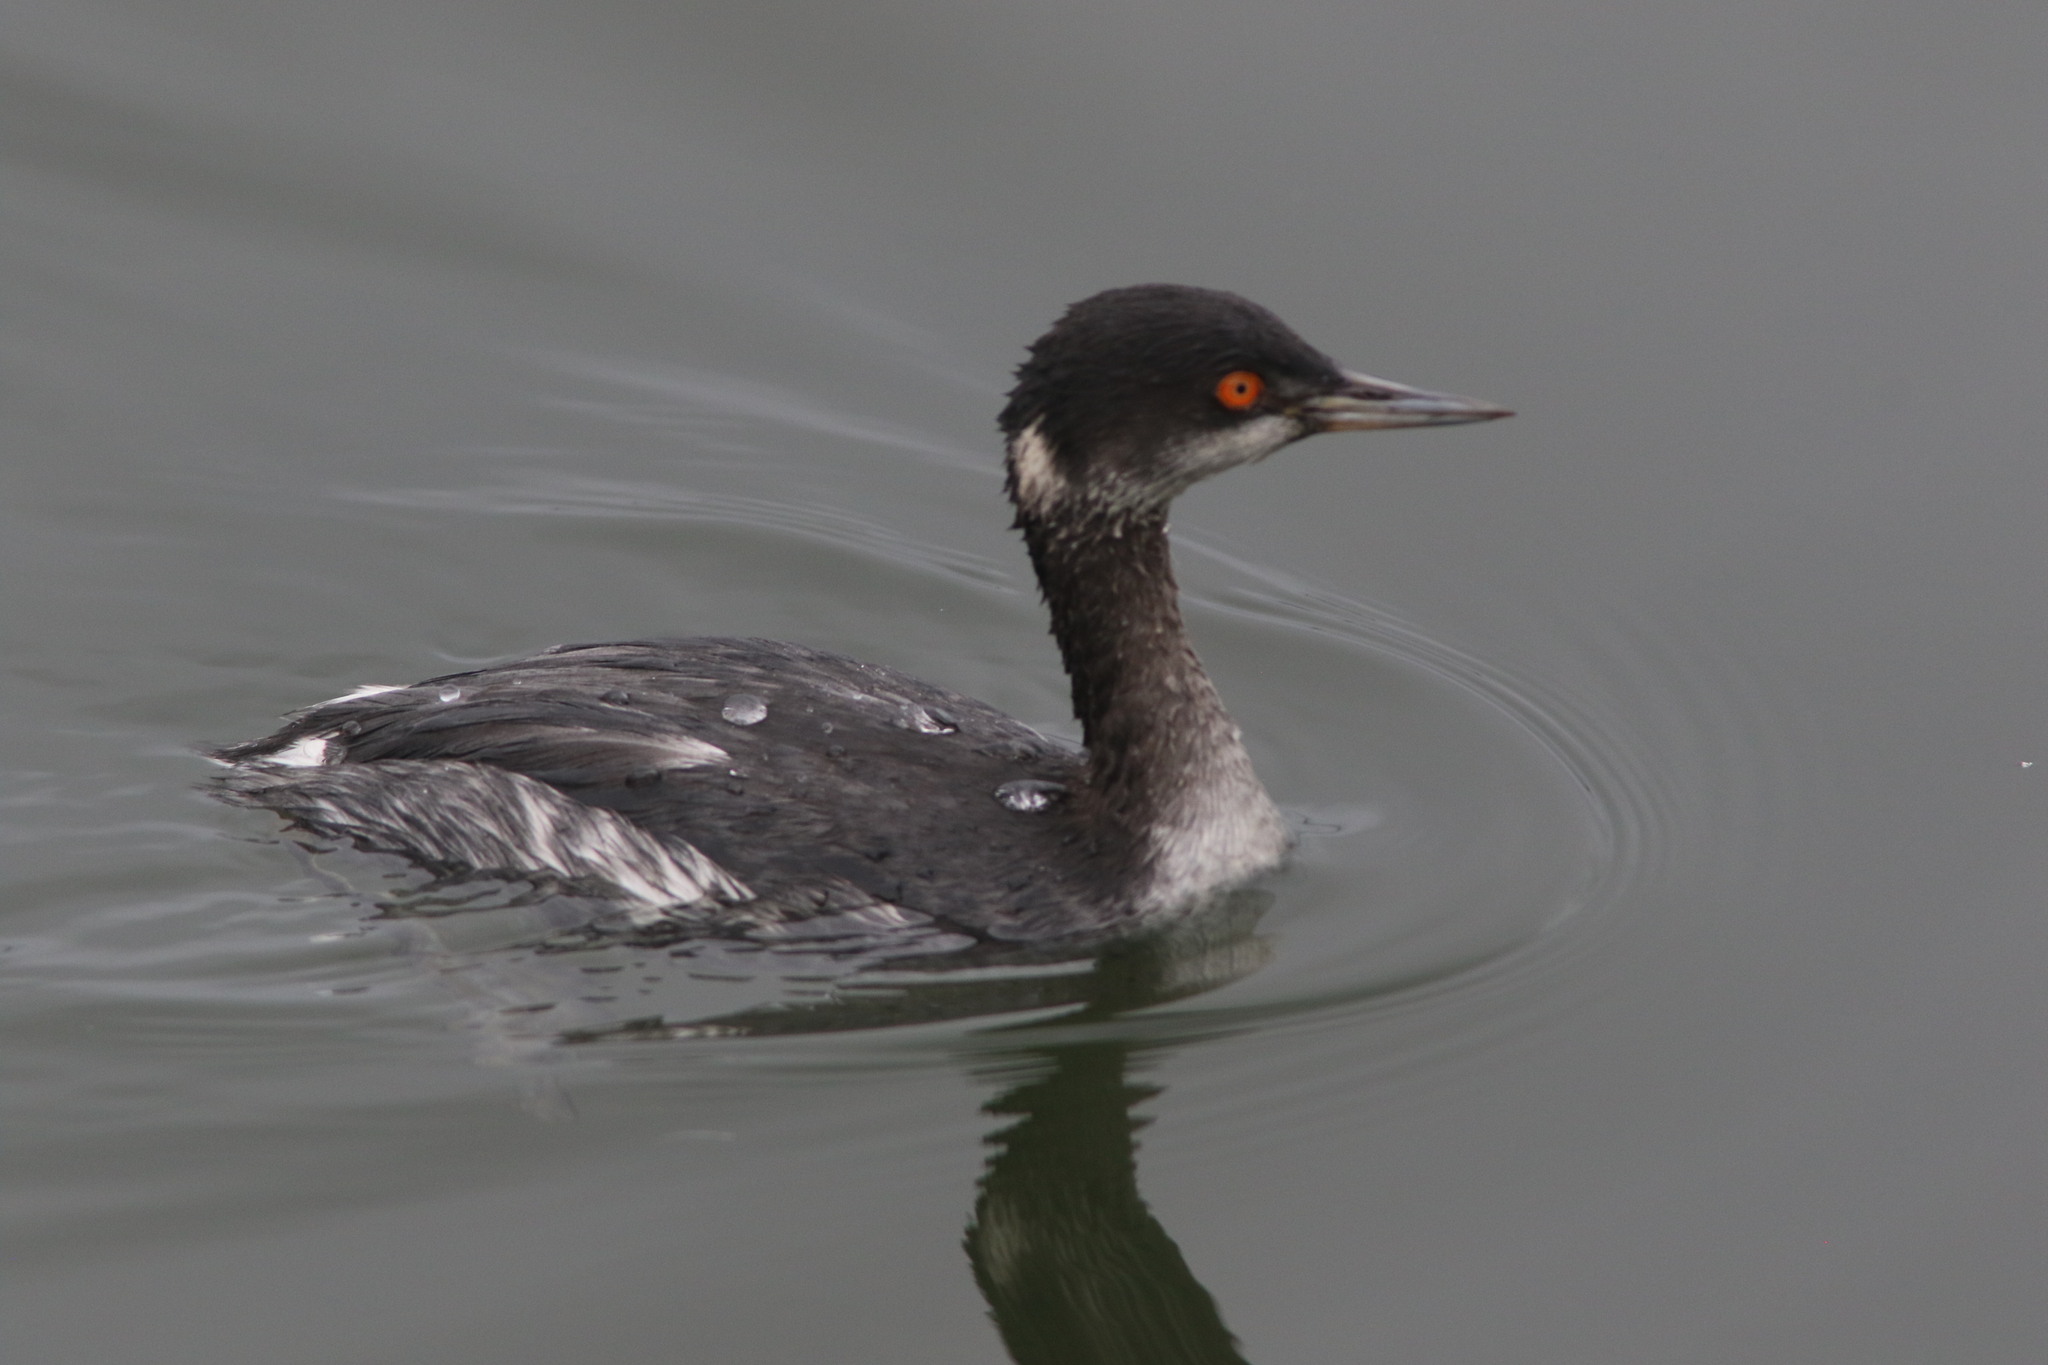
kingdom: Animalia
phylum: Chordata
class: Aves
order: Podicipediformes
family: Podicipedidae
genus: Podiceps
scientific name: Podiceps nigricollis
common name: Black-necked grebe
